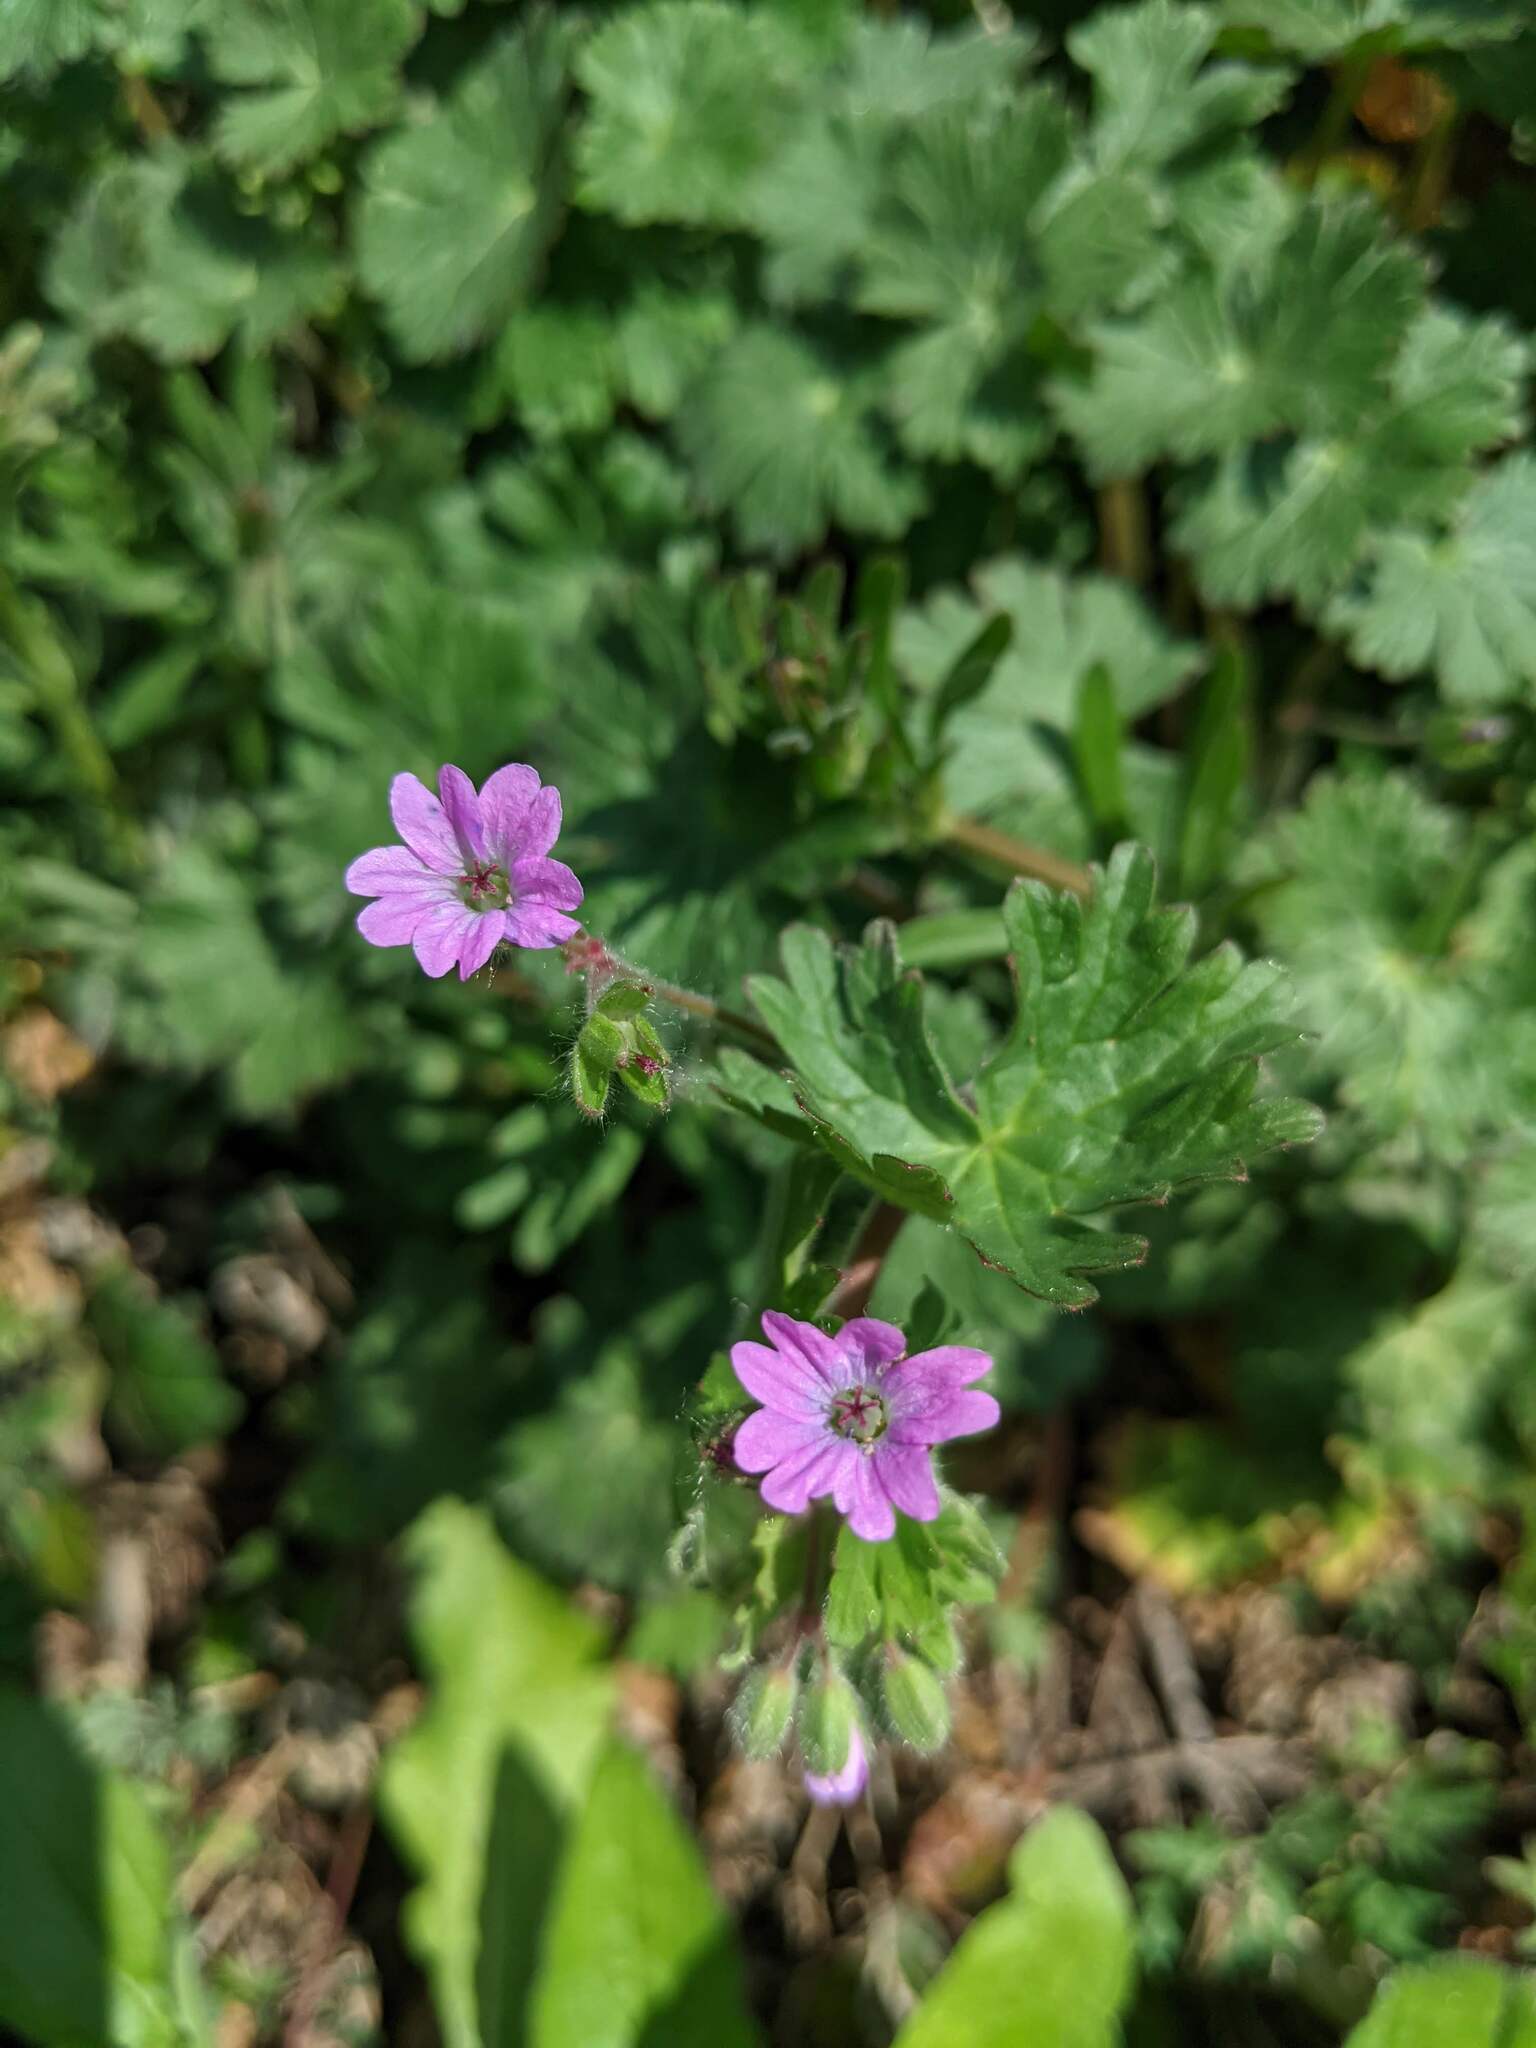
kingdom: Plantae
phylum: Tracheophyta
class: Magnoliopsida
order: Geraniales
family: Geraniaceae
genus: Geranium
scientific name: Geranium molle
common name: Dove's-foot crane's-bill
